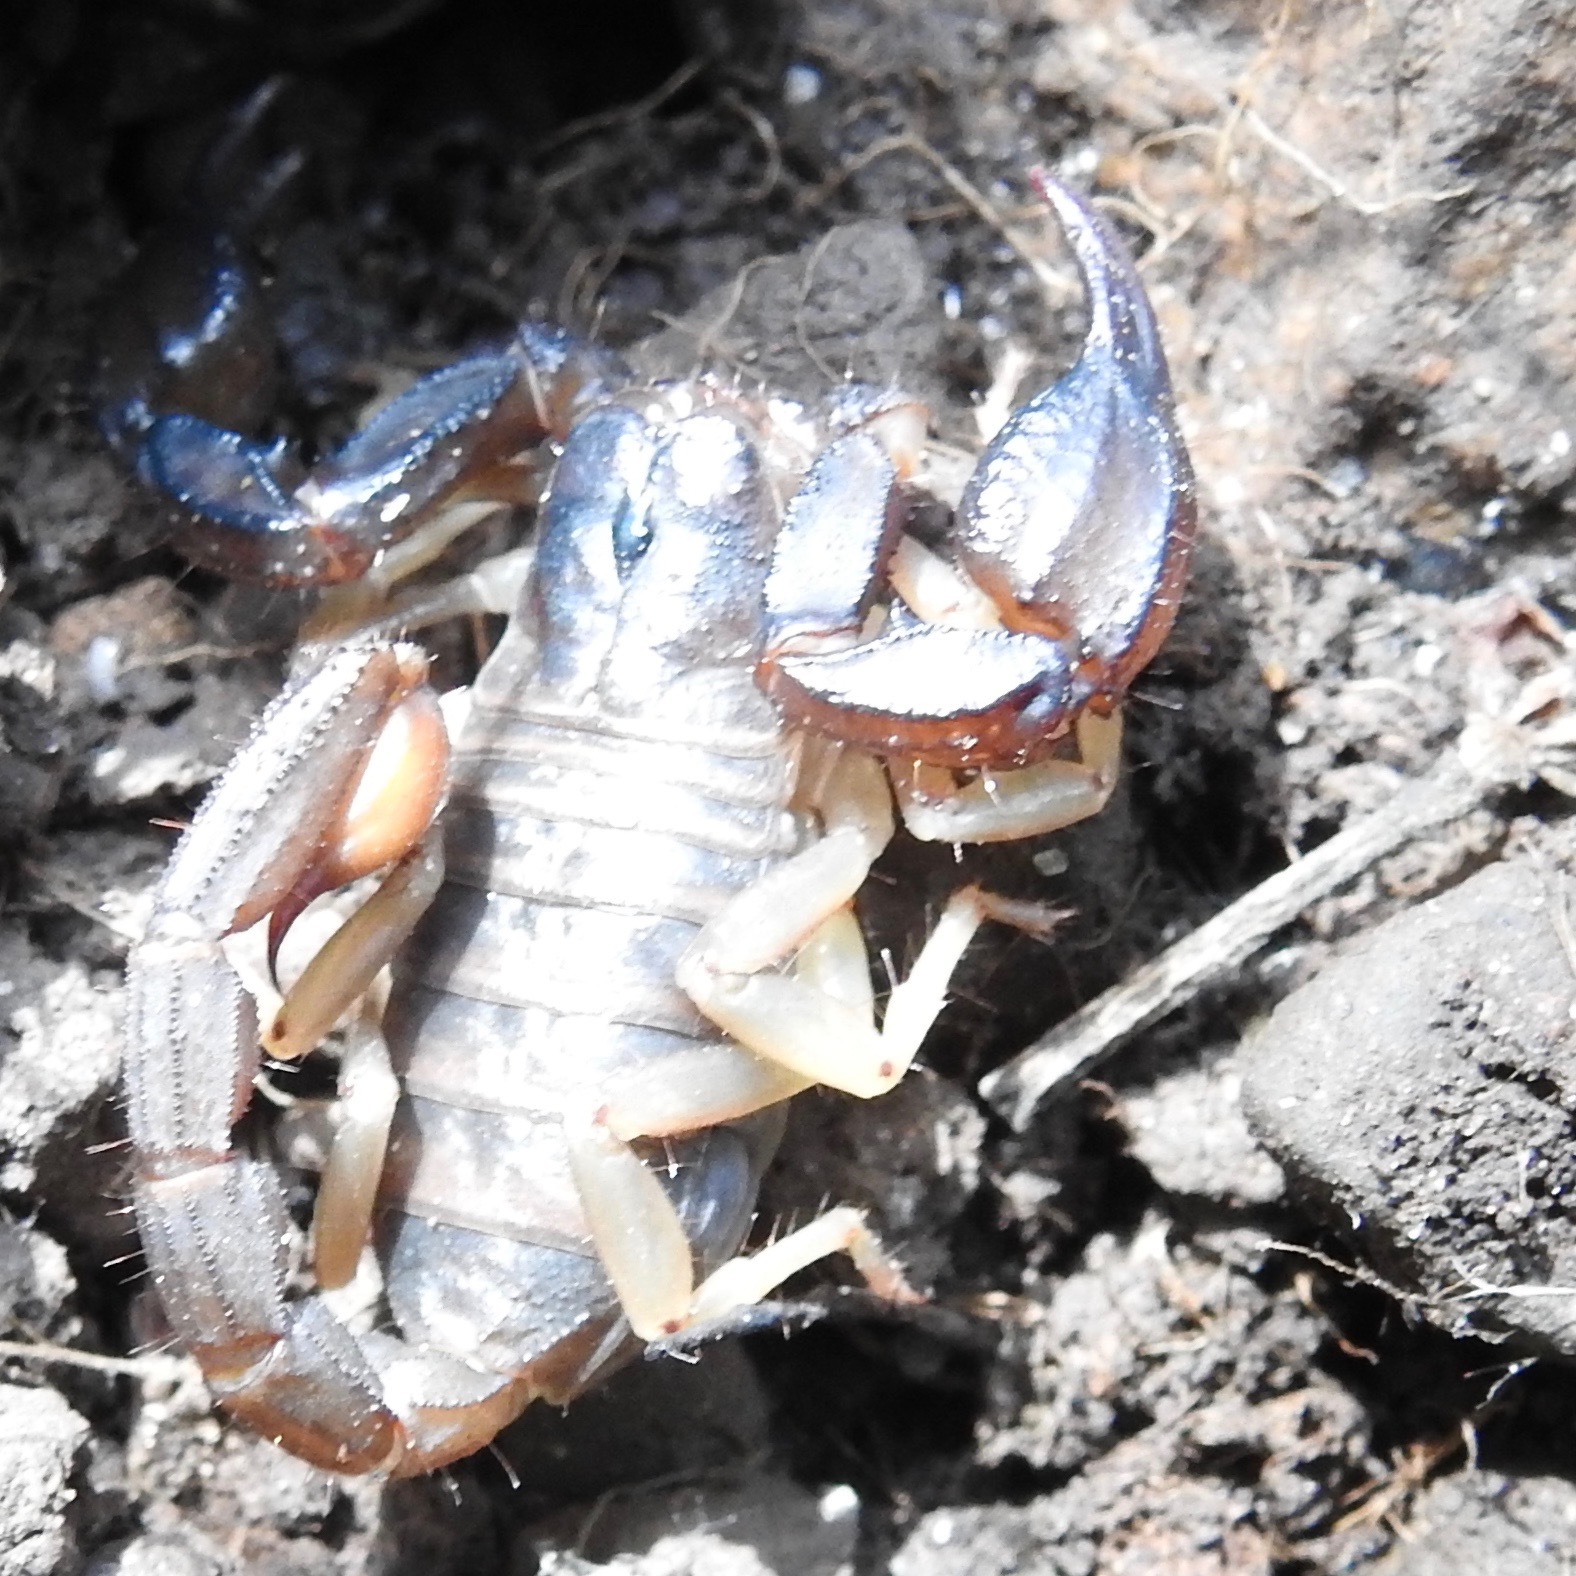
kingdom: Animalia
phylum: Arthropoda
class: Arachnida
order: Scorpiones
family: Chactidae
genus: Uroctonus
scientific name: Uroctonus mordax
